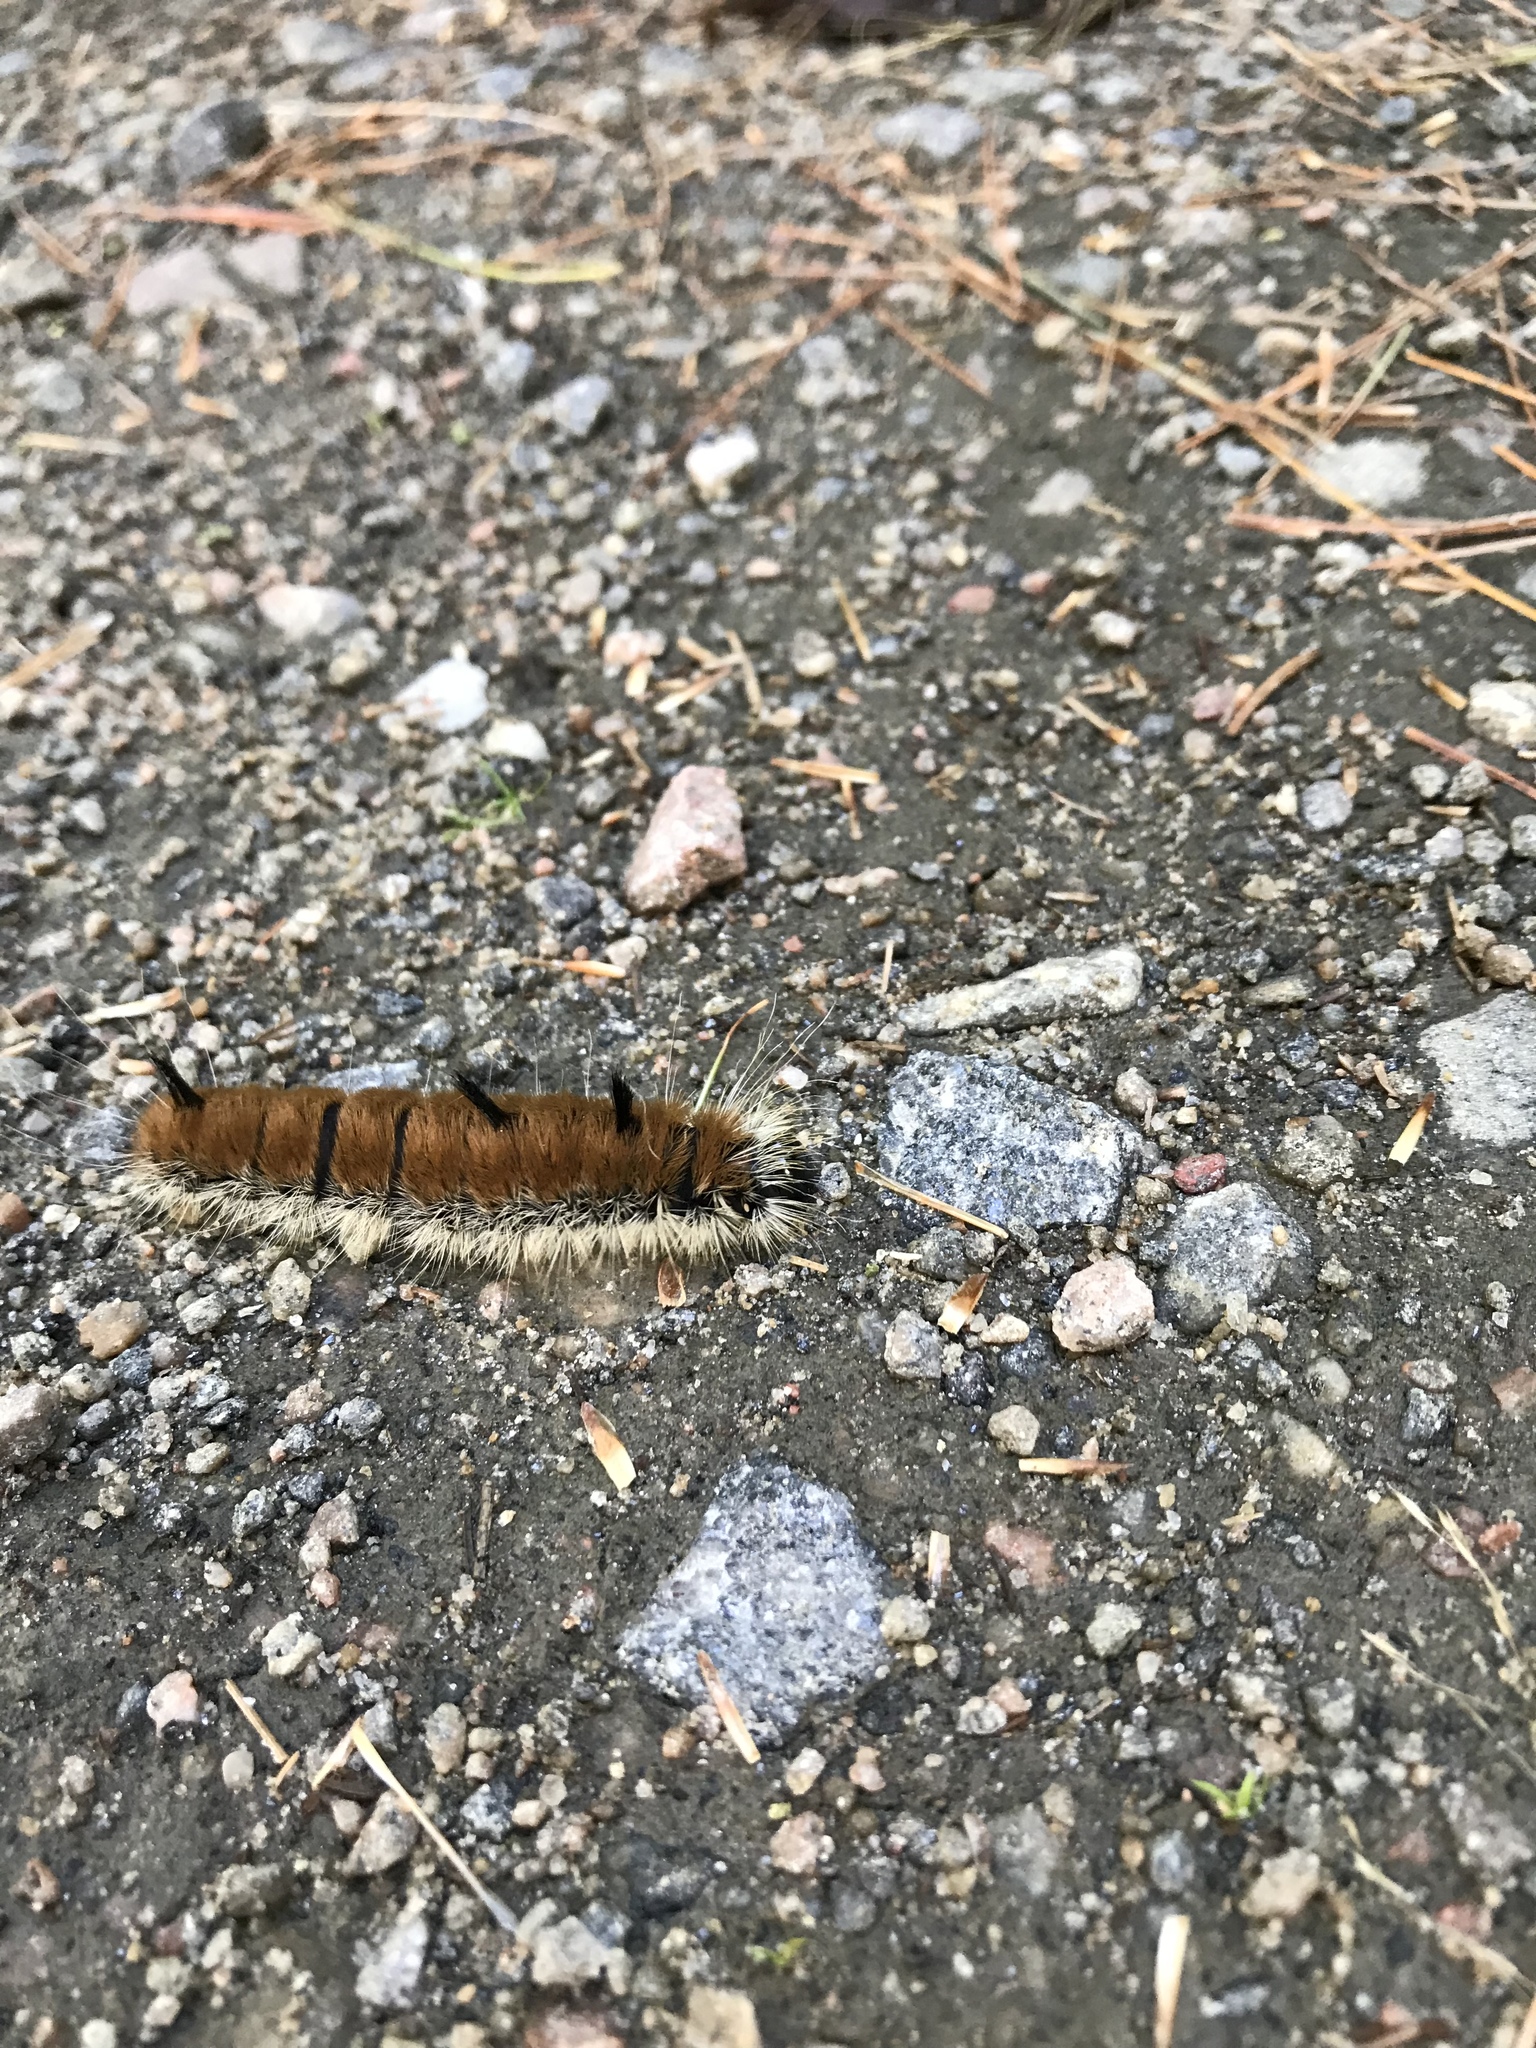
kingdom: Animalia
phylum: Arthropoda
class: Insecta
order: Lepidoptera
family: Noctuidae
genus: Acronicta
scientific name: Acronicta insita
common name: Large gray dagger
